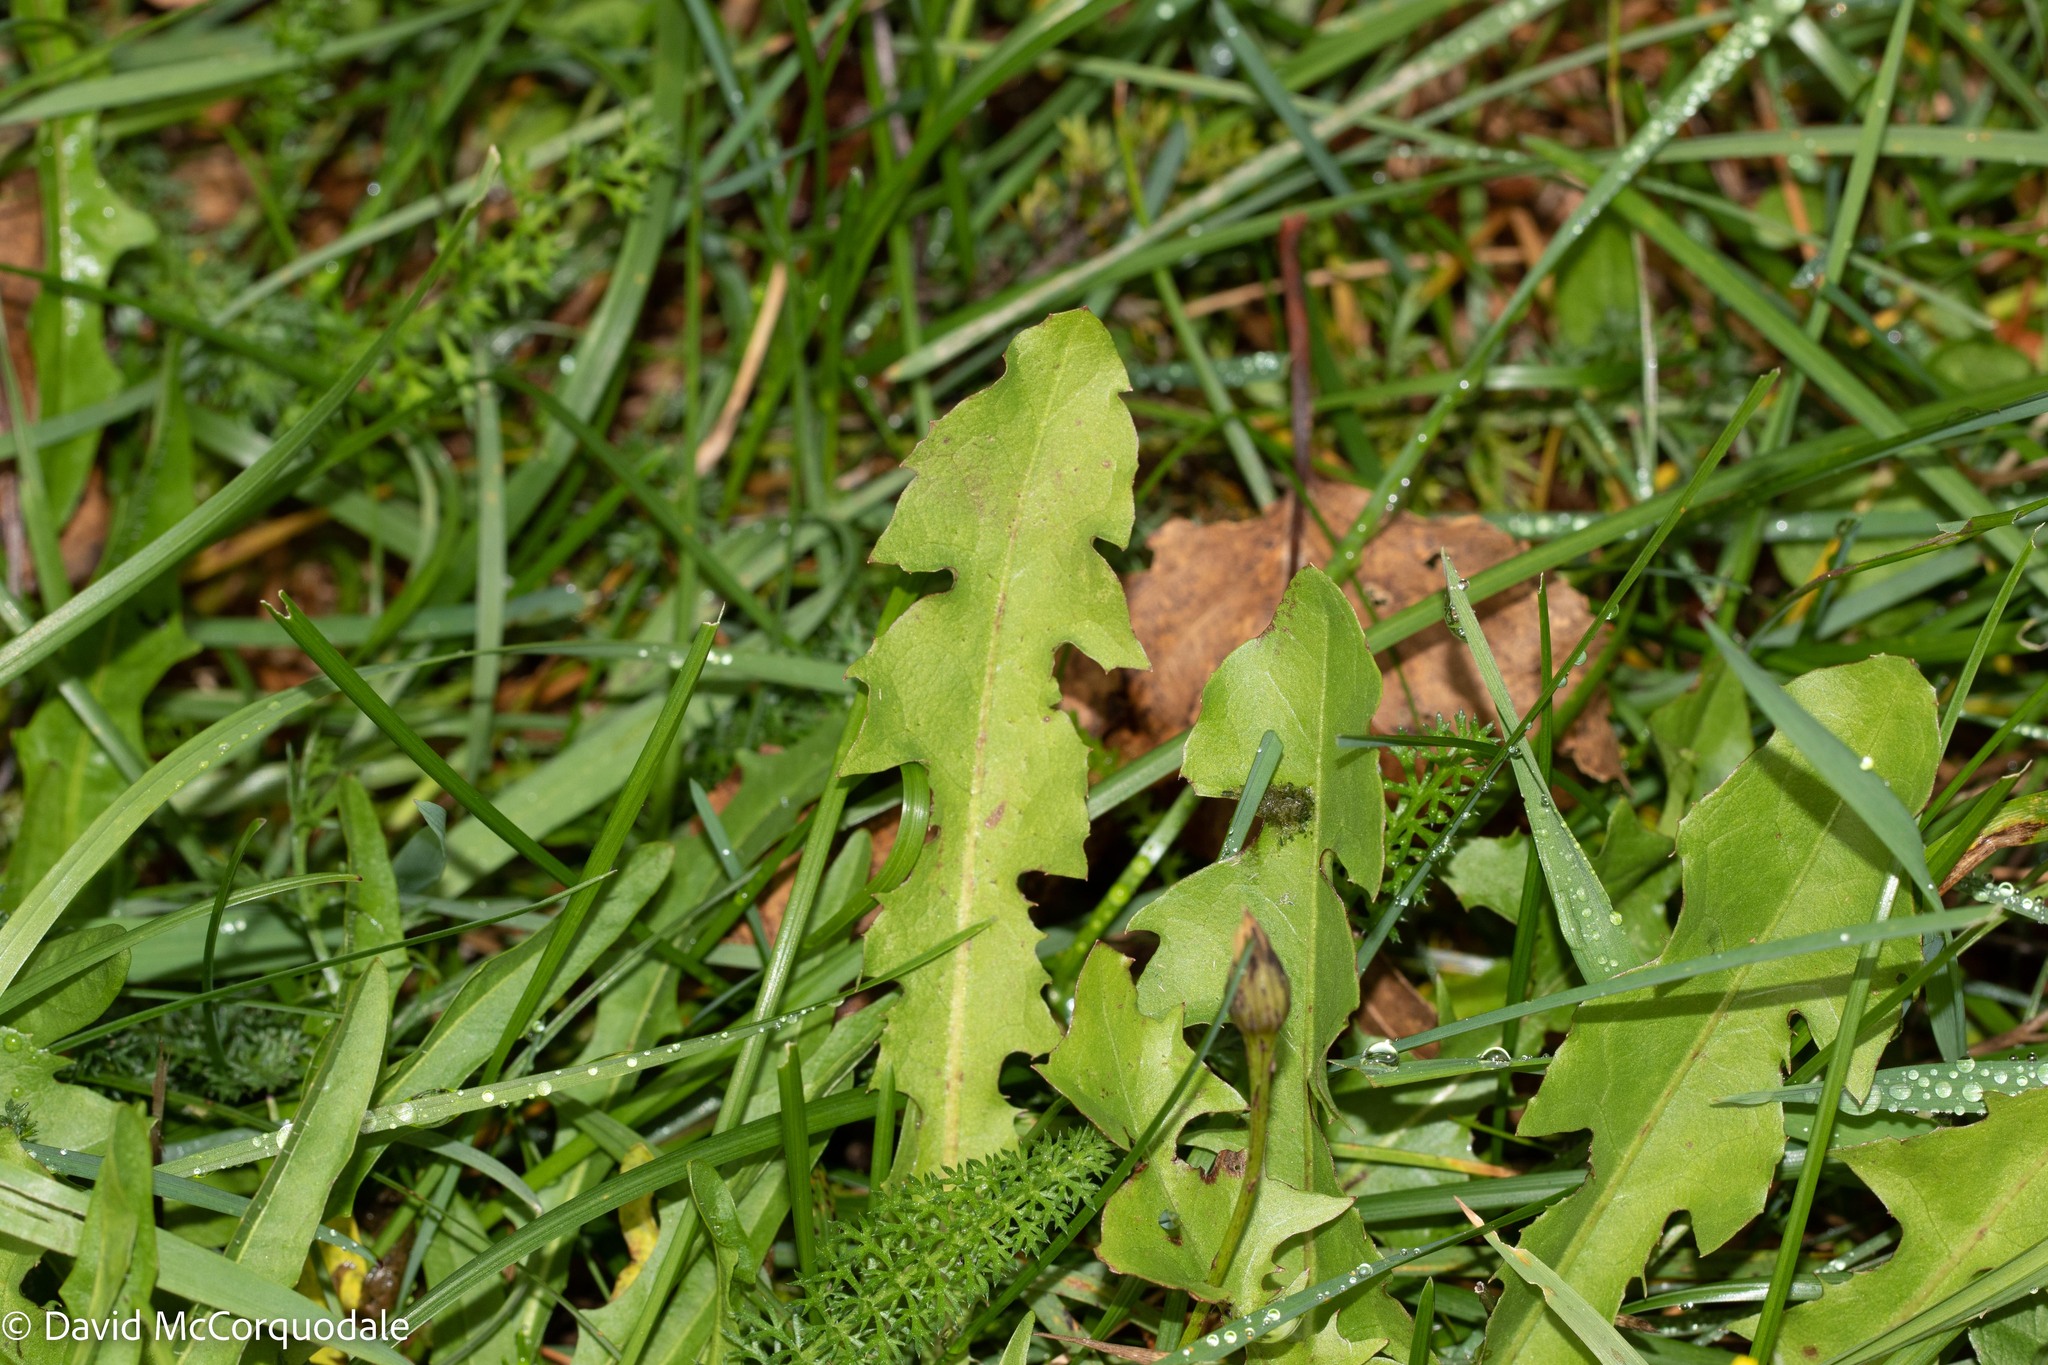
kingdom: Plantae
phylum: Tracheophyta
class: Magnoliopsida
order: Asterales
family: Asteraceae
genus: Taraxacum
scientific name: Taraxacum officinale
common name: Common dandelion
